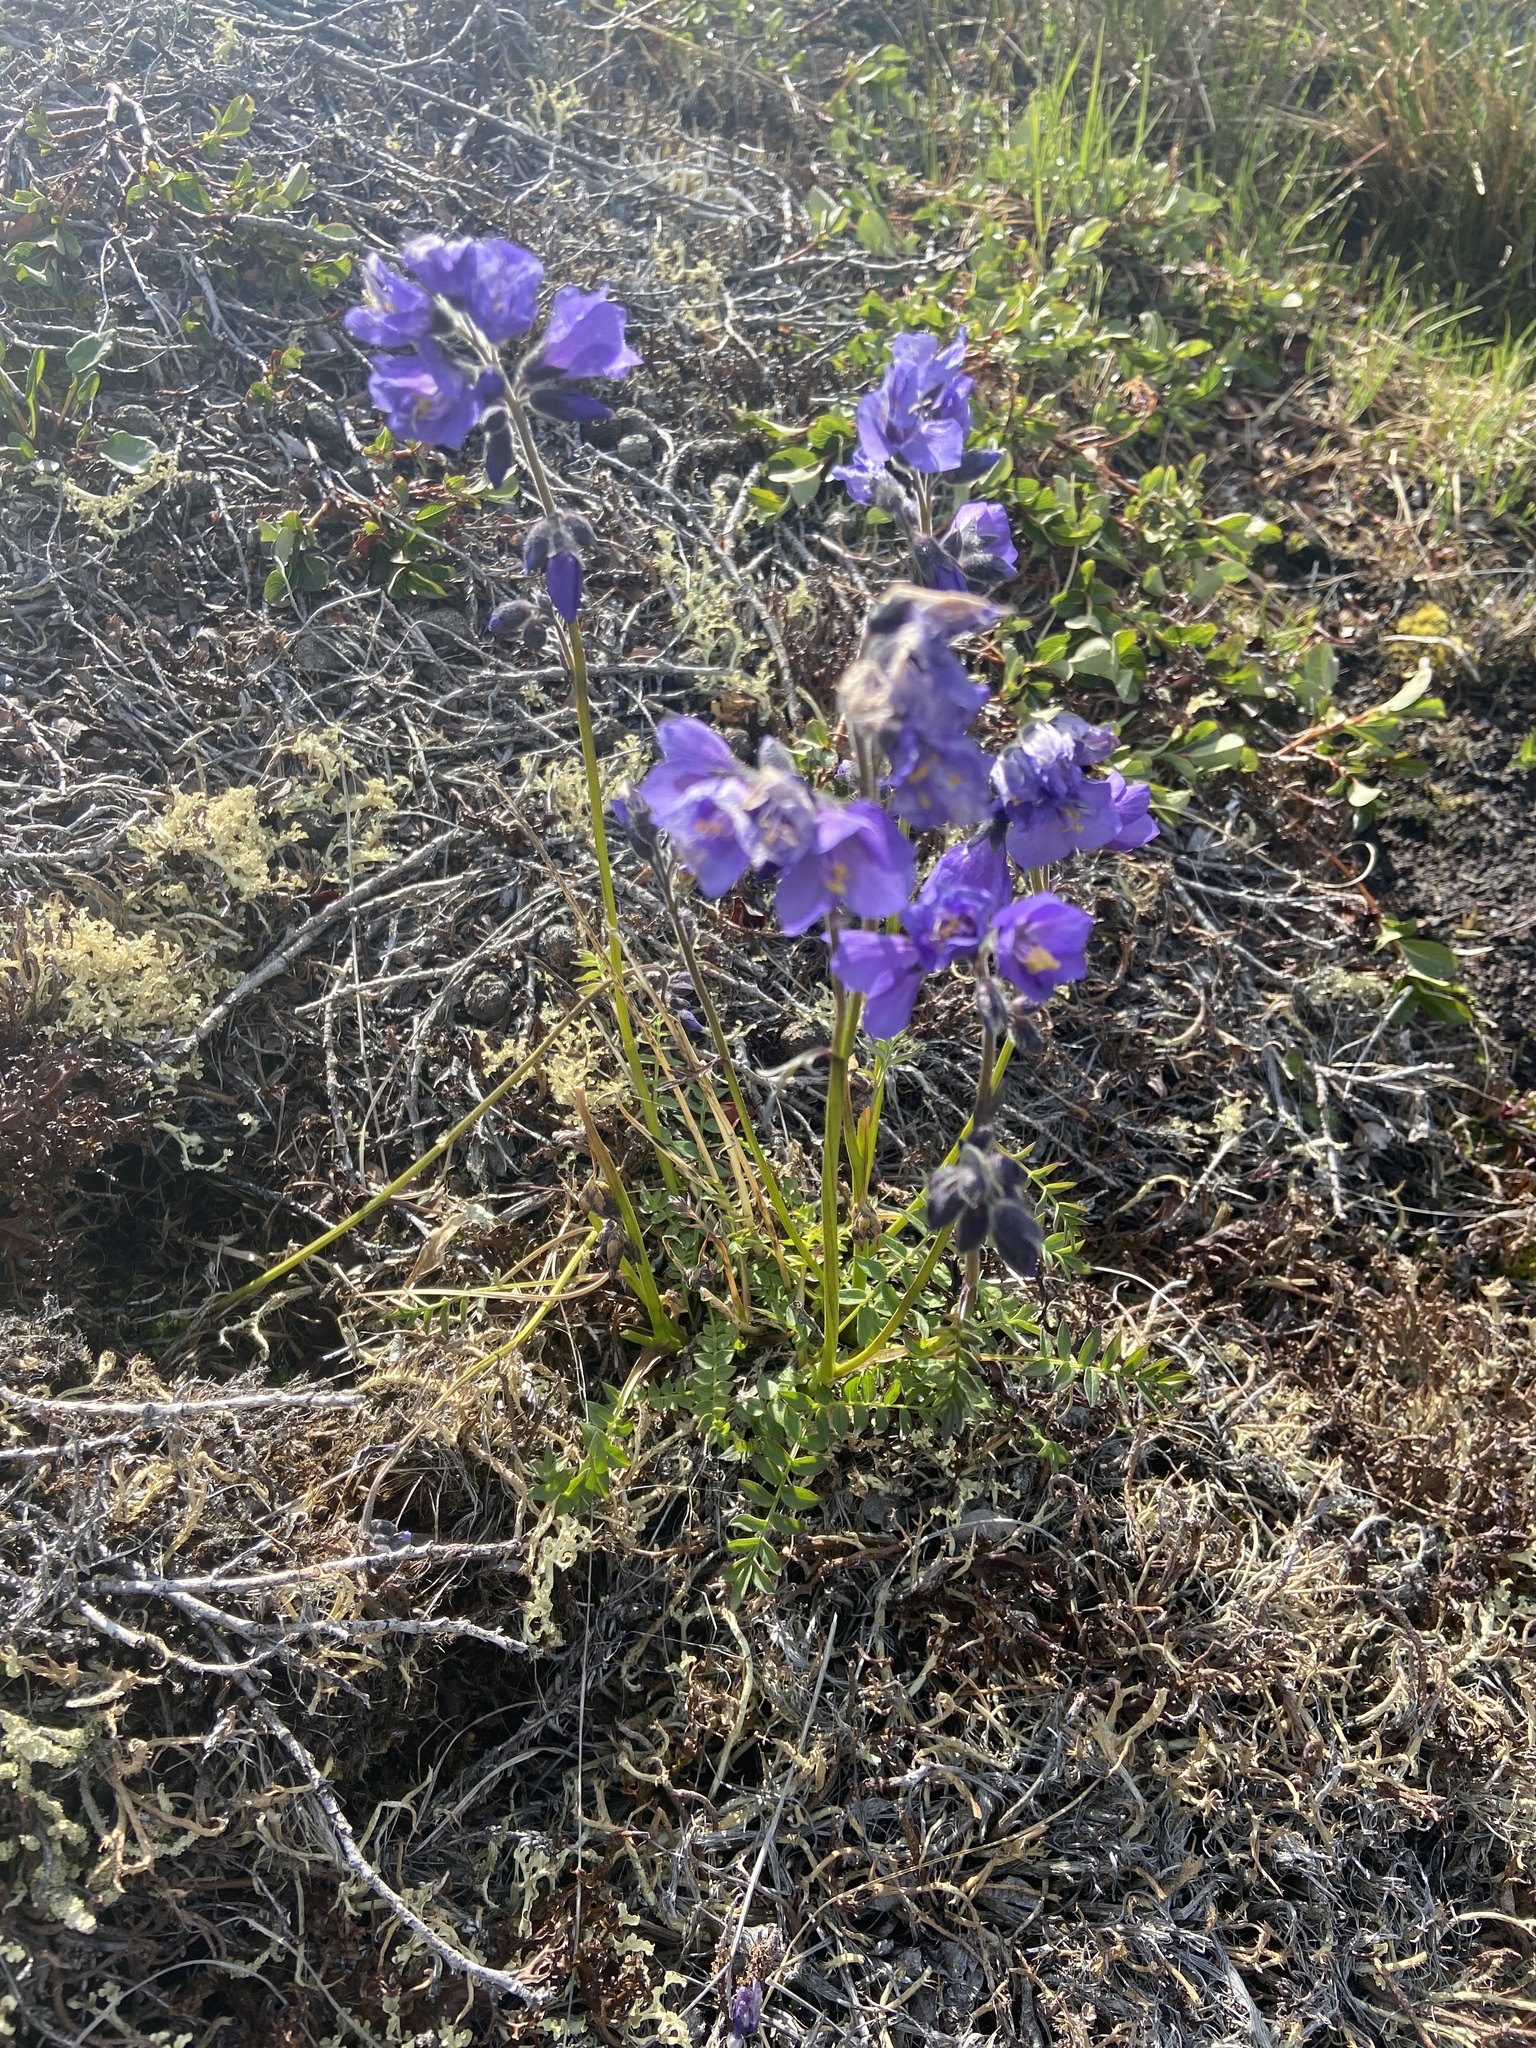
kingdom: Plantae
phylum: Tracheophyta
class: Magnoliopsida
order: Ericales
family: Polemoniaceae
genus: Polemonium
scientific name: Polemonium acutiflorum
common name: Tall jacob's-ladder
